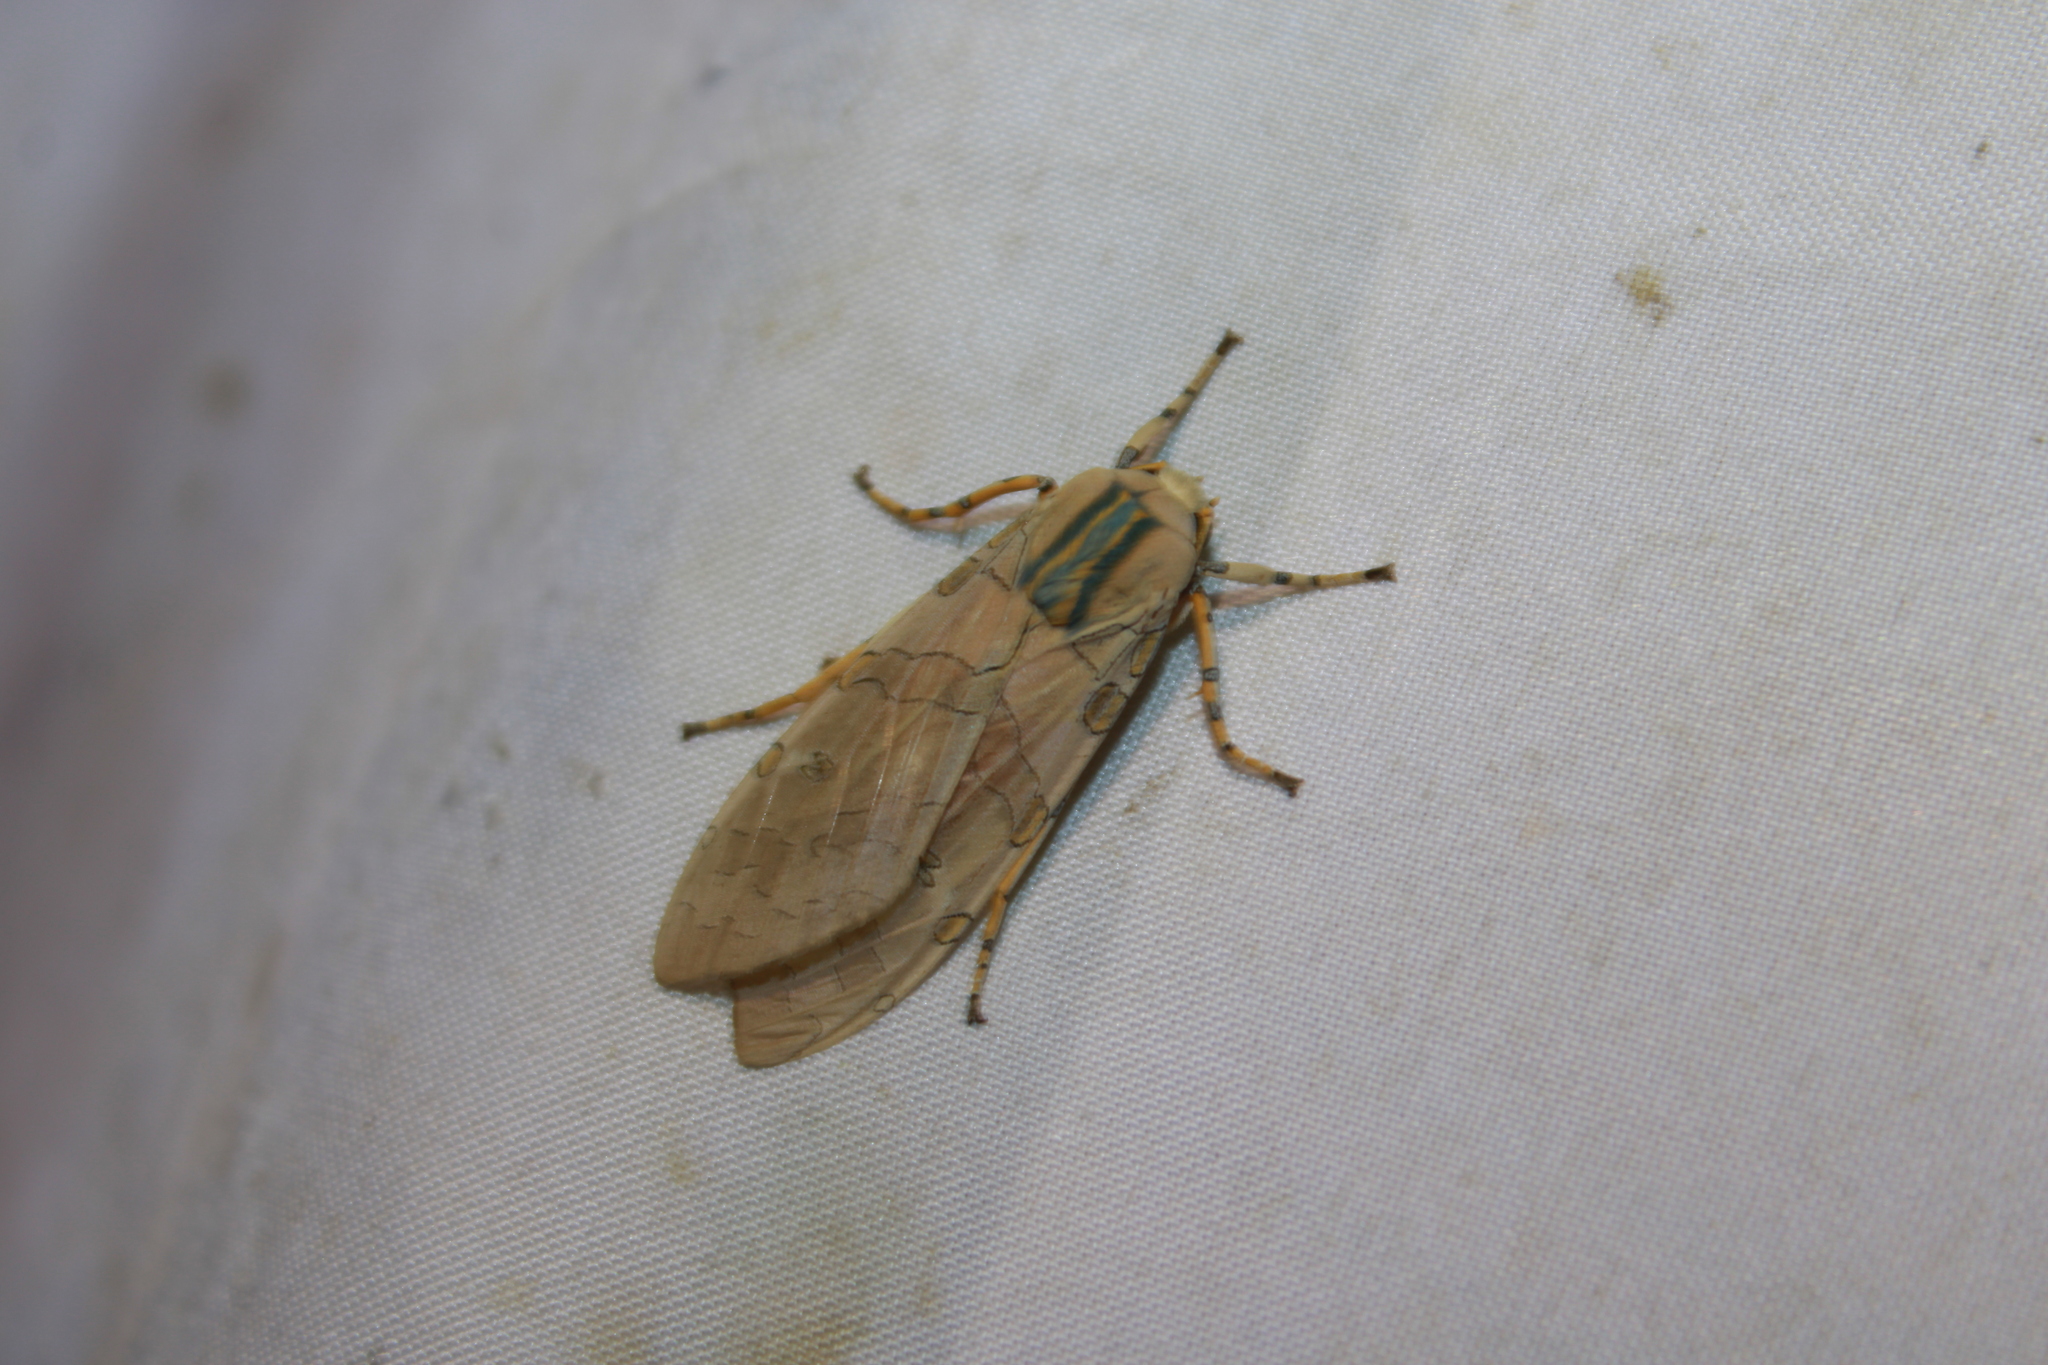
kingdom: Animalia
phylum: Arthropoda
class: Insecta
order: Lepidoptera
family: Erebidae
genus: Halysidota
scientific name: Halysidota cinctipes
